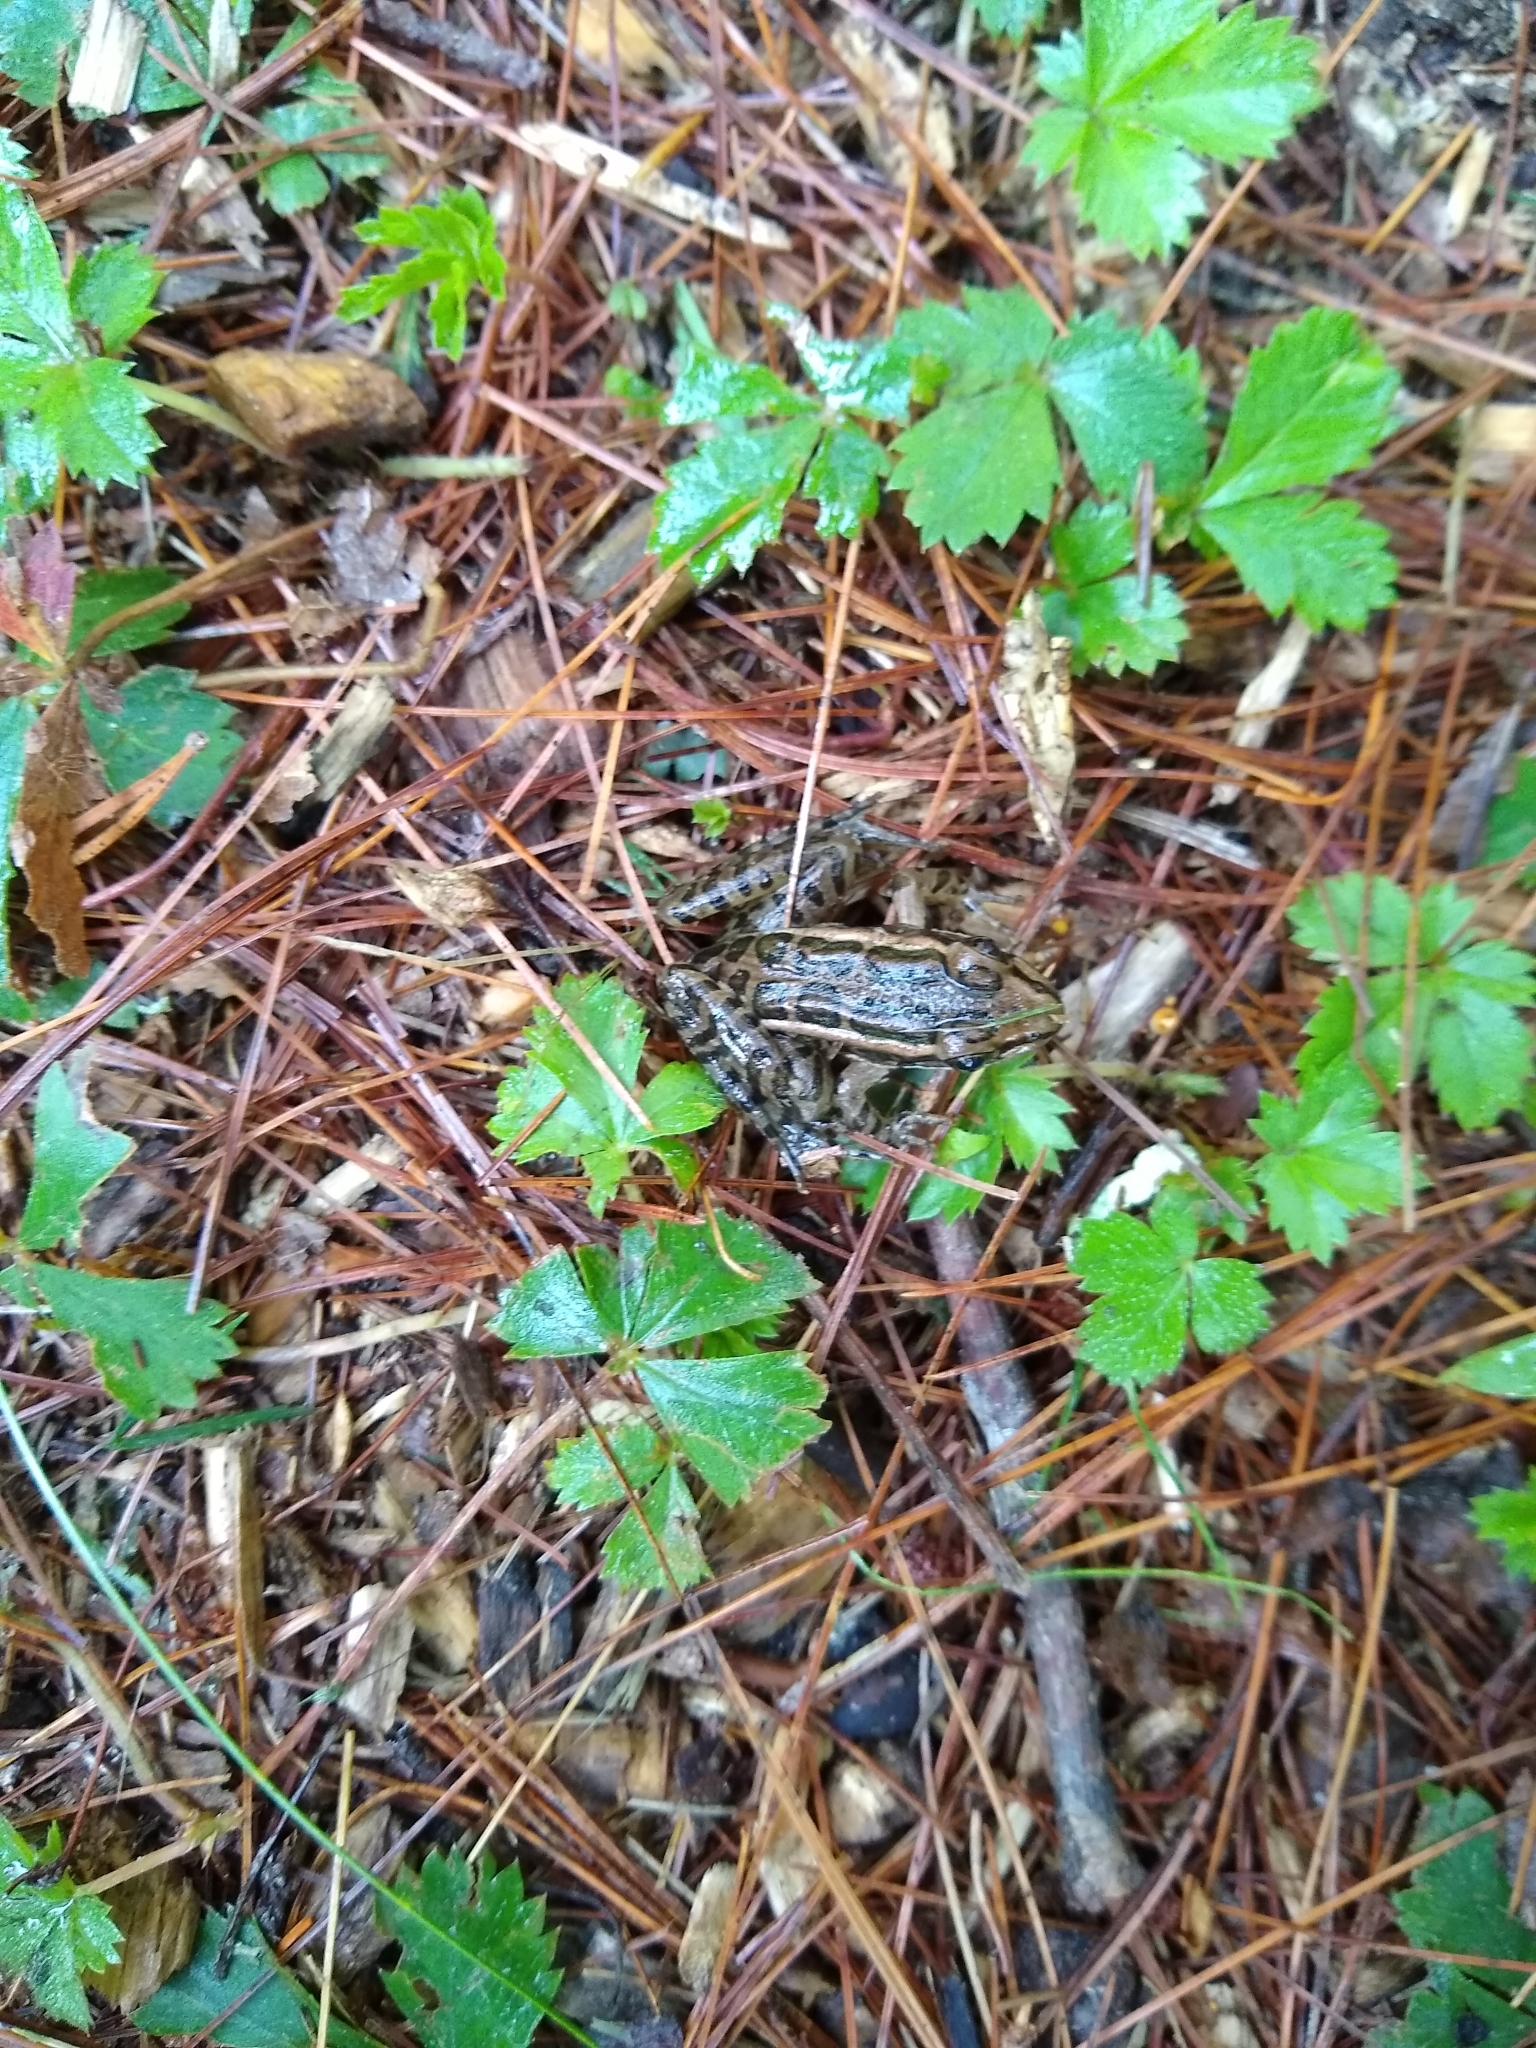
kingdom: Animalia
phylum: Chordata
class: Amphibia
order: Anura
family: Ranidae
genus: Lithobates
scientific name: Lithobates palustris
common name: Pickerel frog
